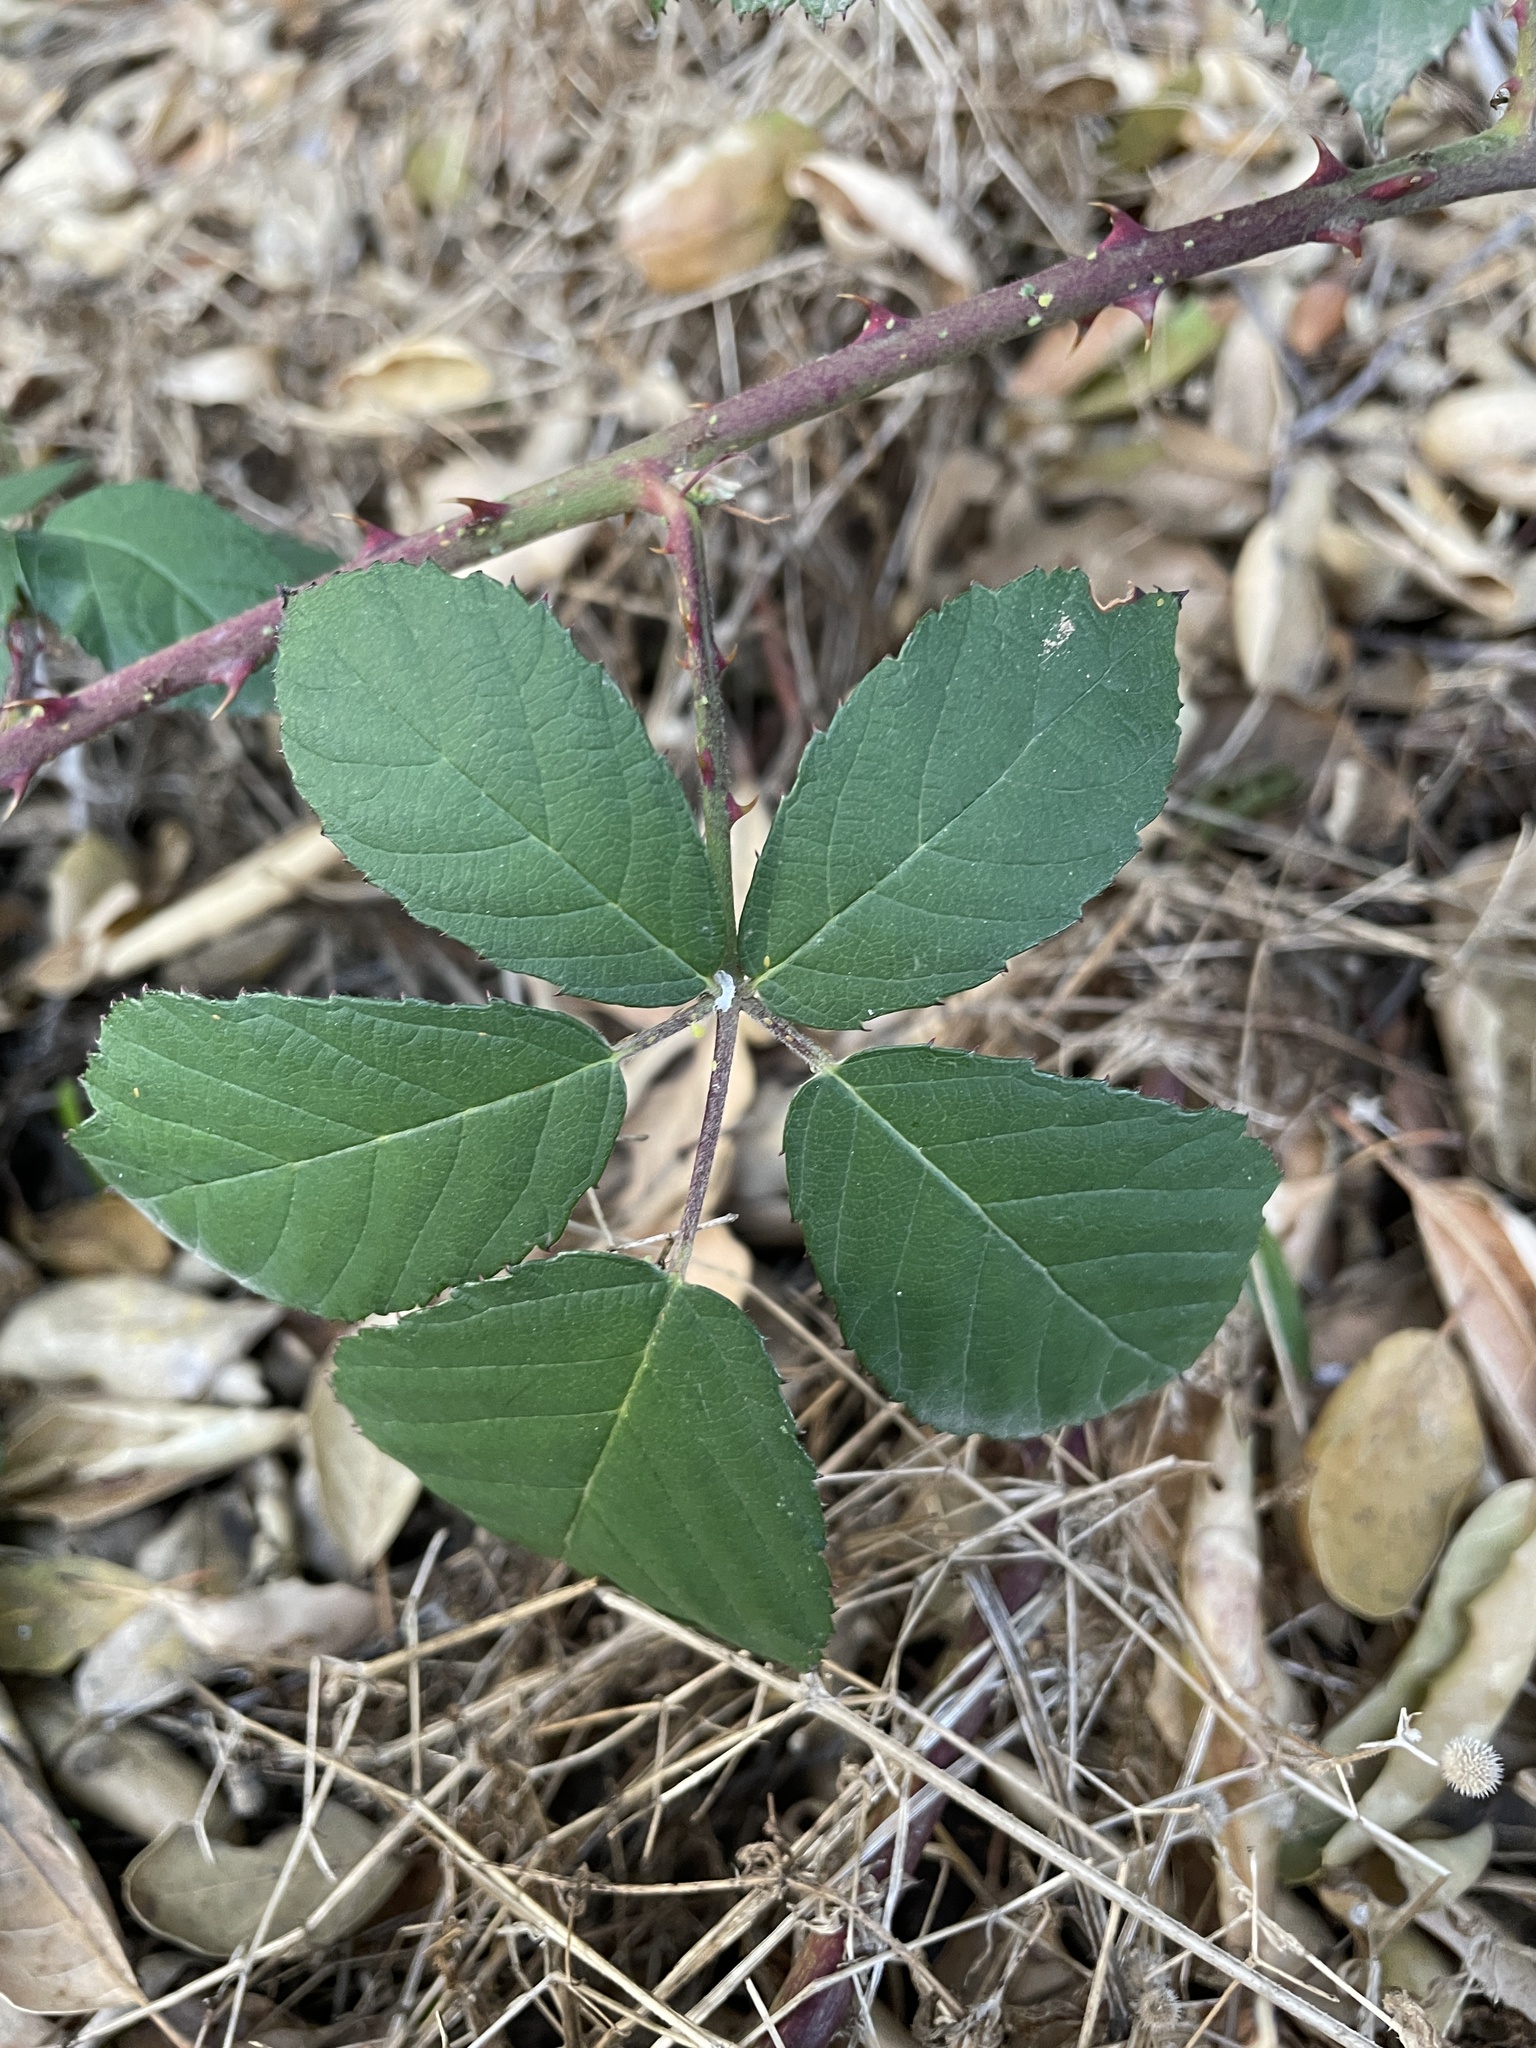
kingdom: Plantae
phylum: Tracheophyta
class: Magnoliopsida
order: Rosales
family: Rosaceae
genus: Rubus
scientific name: Rubus armeniacus
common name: Himalayan blackberry
